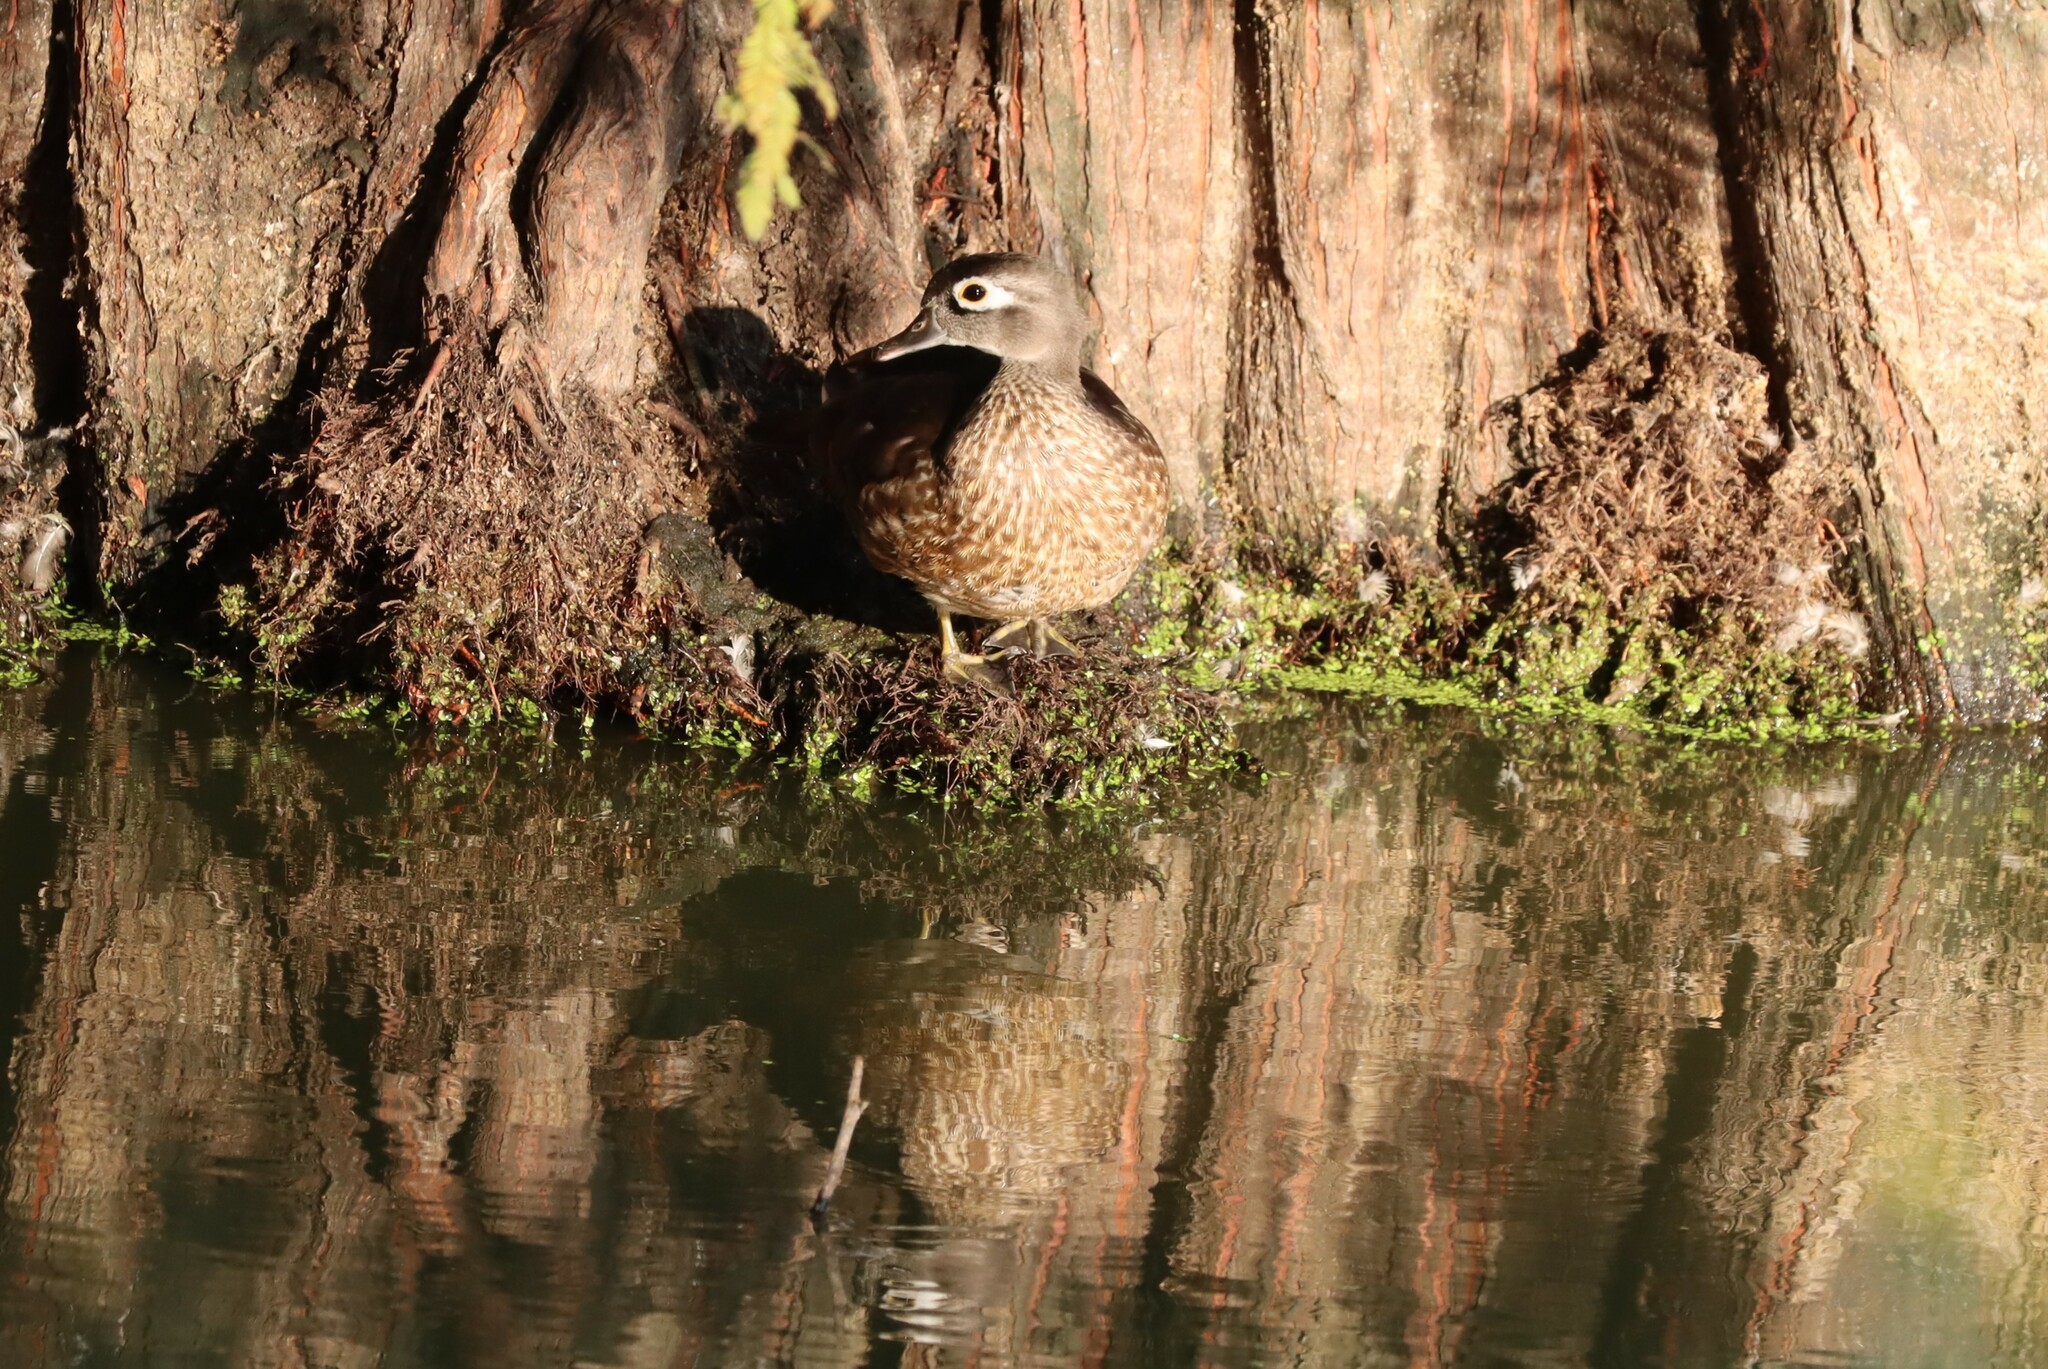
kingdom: Animalia
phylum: Chordata
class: Aves
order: Anseriformes
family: Anatidae
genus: Aix
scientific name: Aix sponsa
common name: Wood duck
